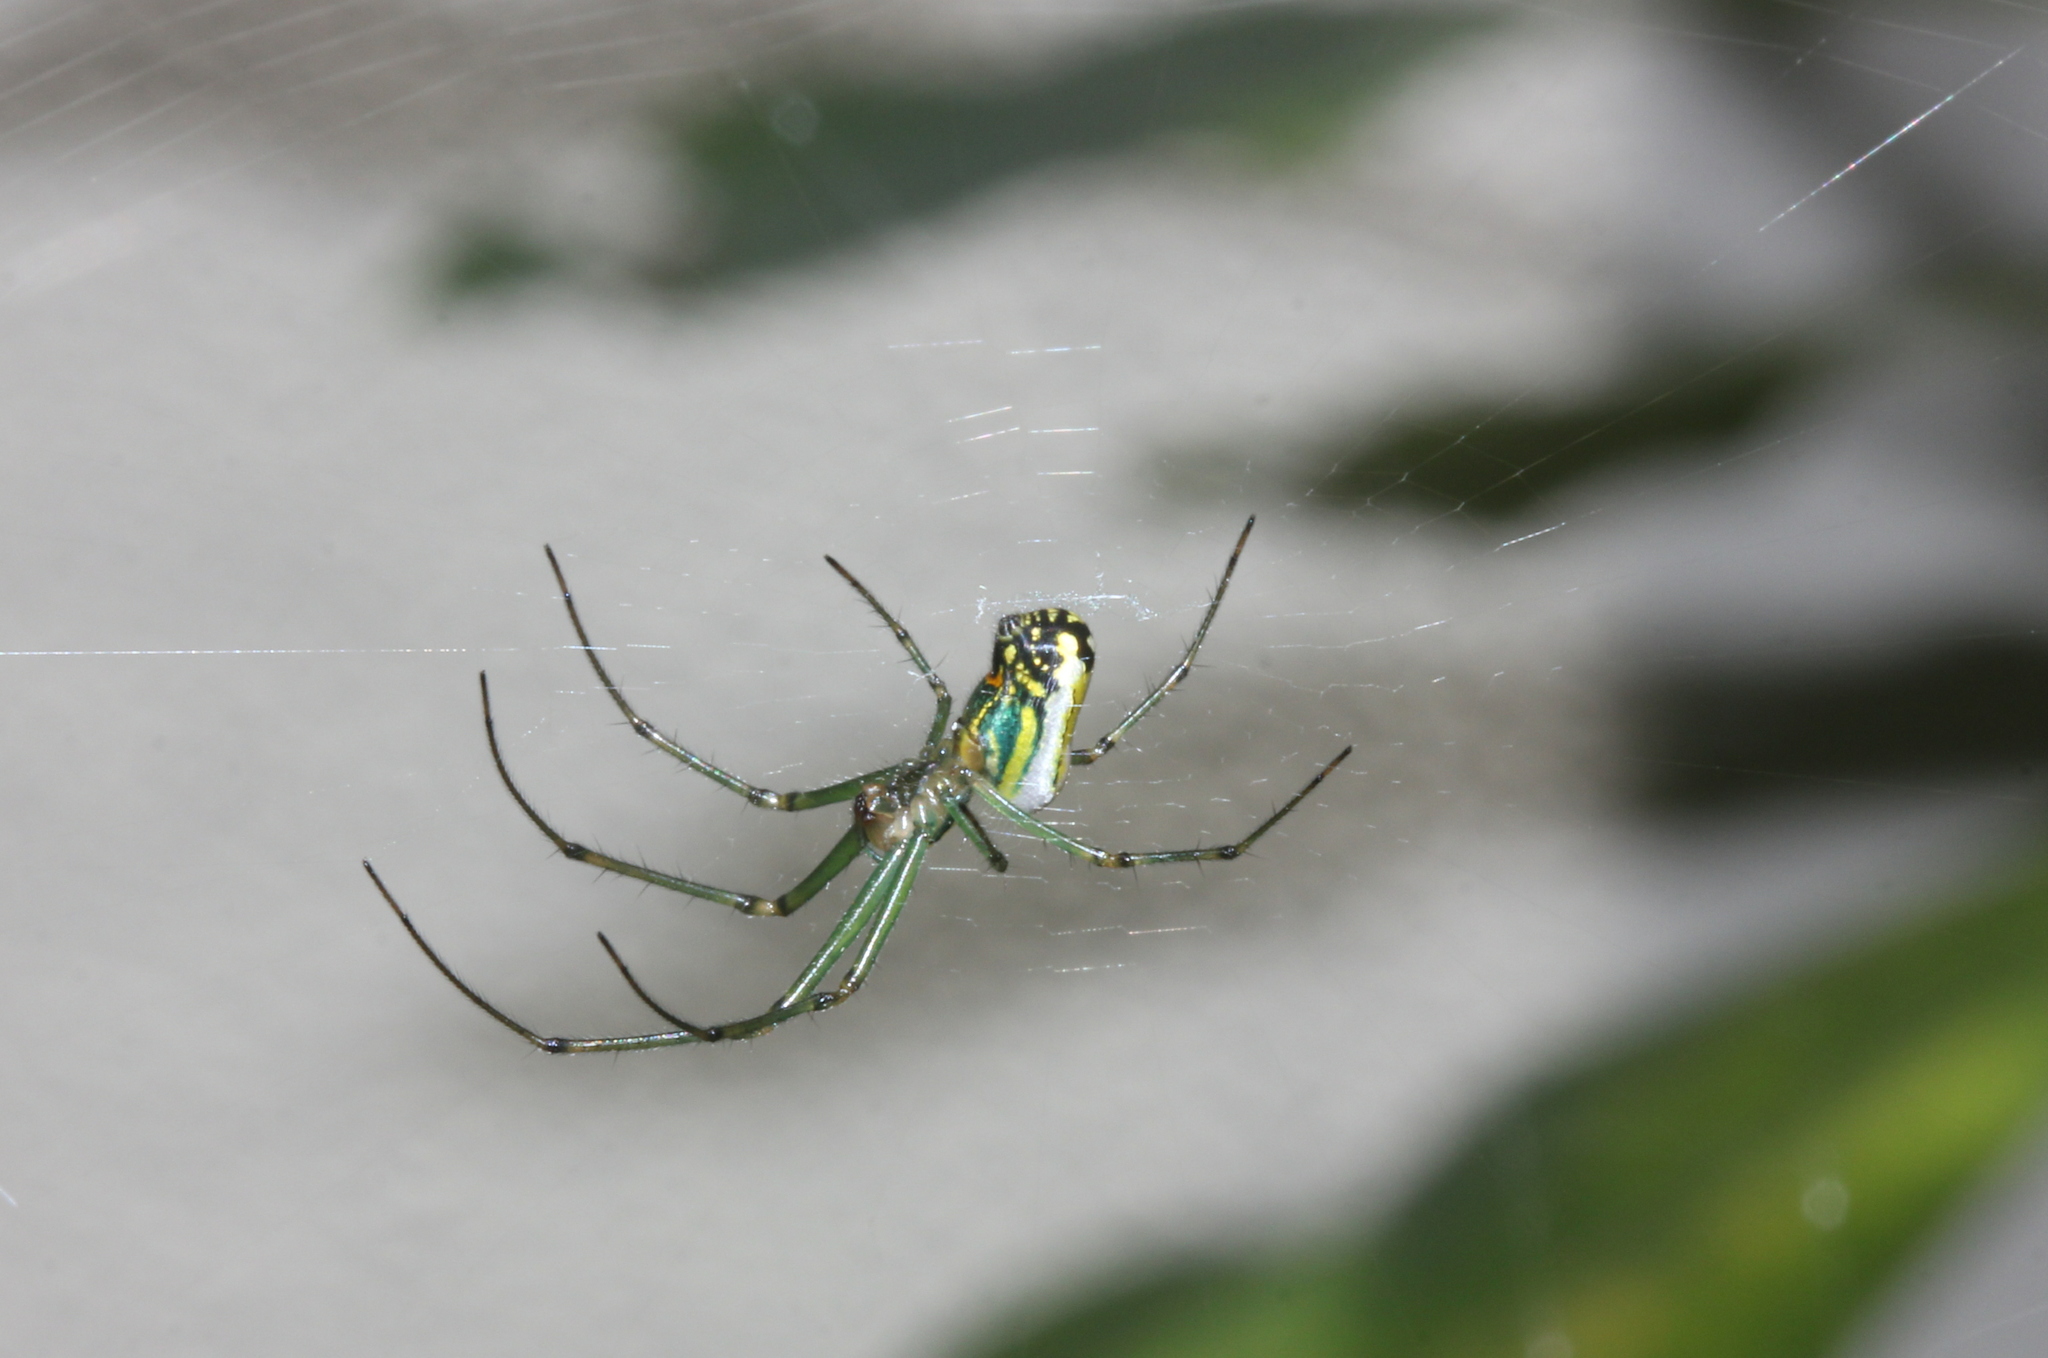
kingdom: Animalia
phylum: Arthropoda
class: Arachnida
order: Araneae
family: Tetragnathidae
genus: Leucauge
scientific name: Leucauge venusta
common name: Longjawed orb weavers
